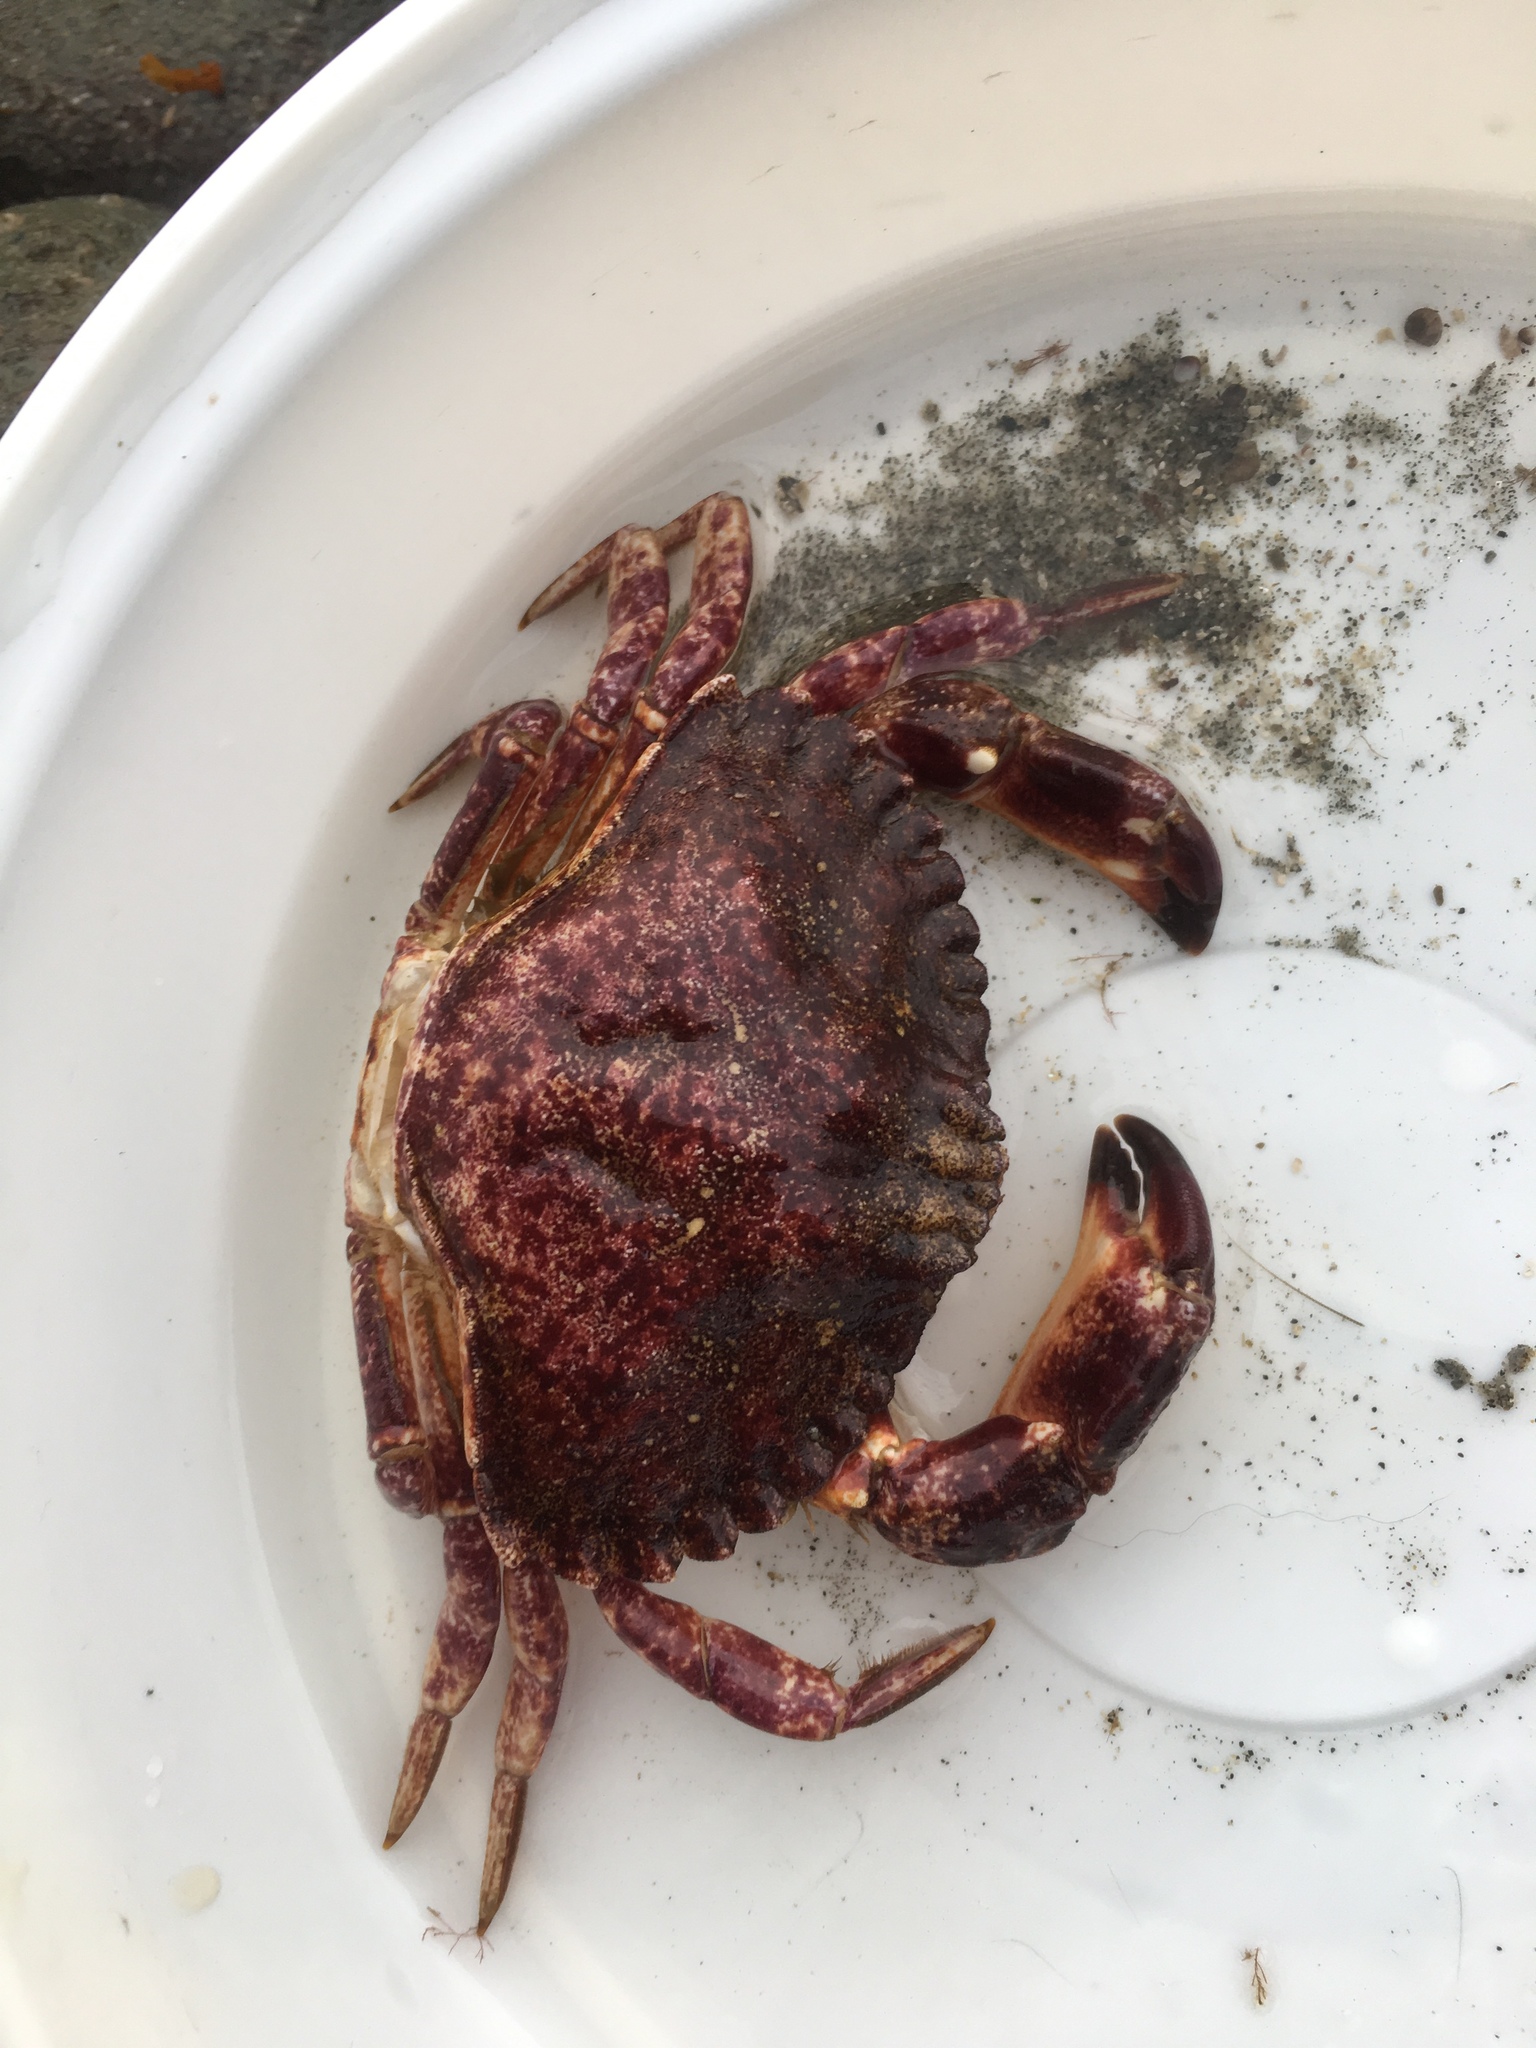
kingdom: Animalia
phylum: Arthropoda
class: Malacostraca
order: Decapoda
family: Cancridae
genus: Cancer
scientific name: Cancer productus
